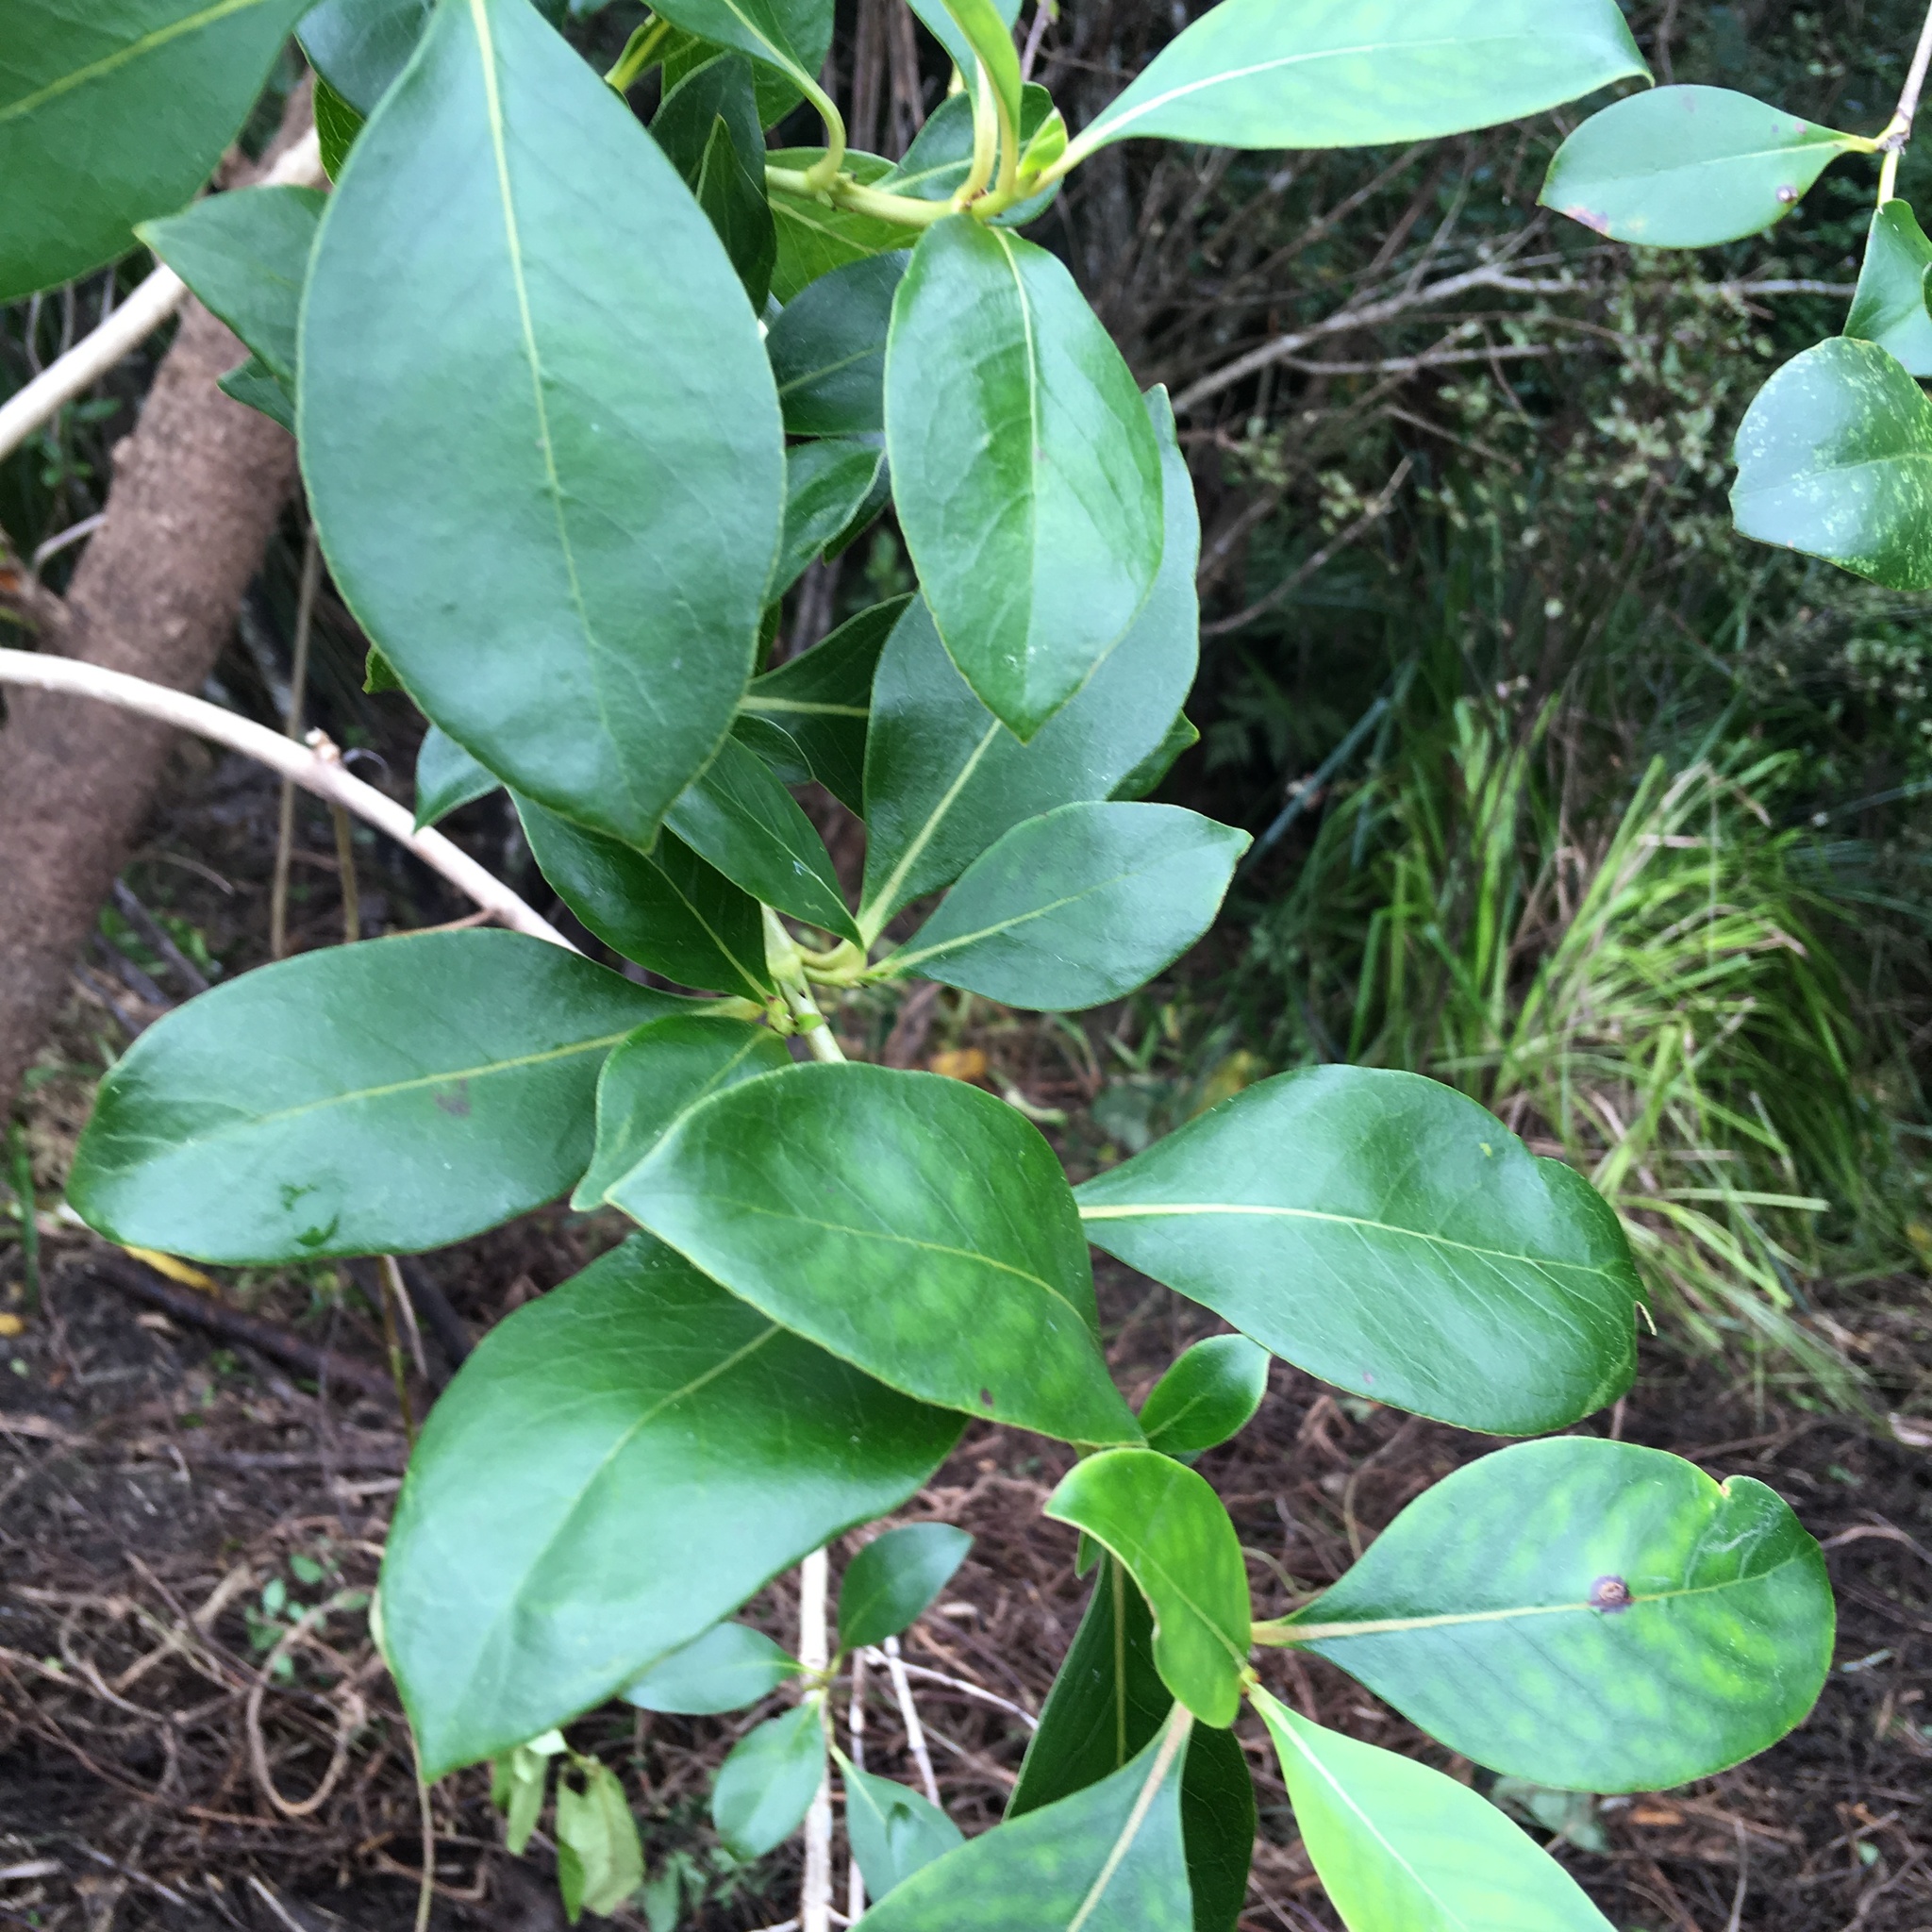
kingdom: Plantae
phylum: Tracheophyta
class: Magnoliopsida
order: Gentianales
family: Rubiaceae
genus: Coprosma
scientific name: Coprosma robusta
